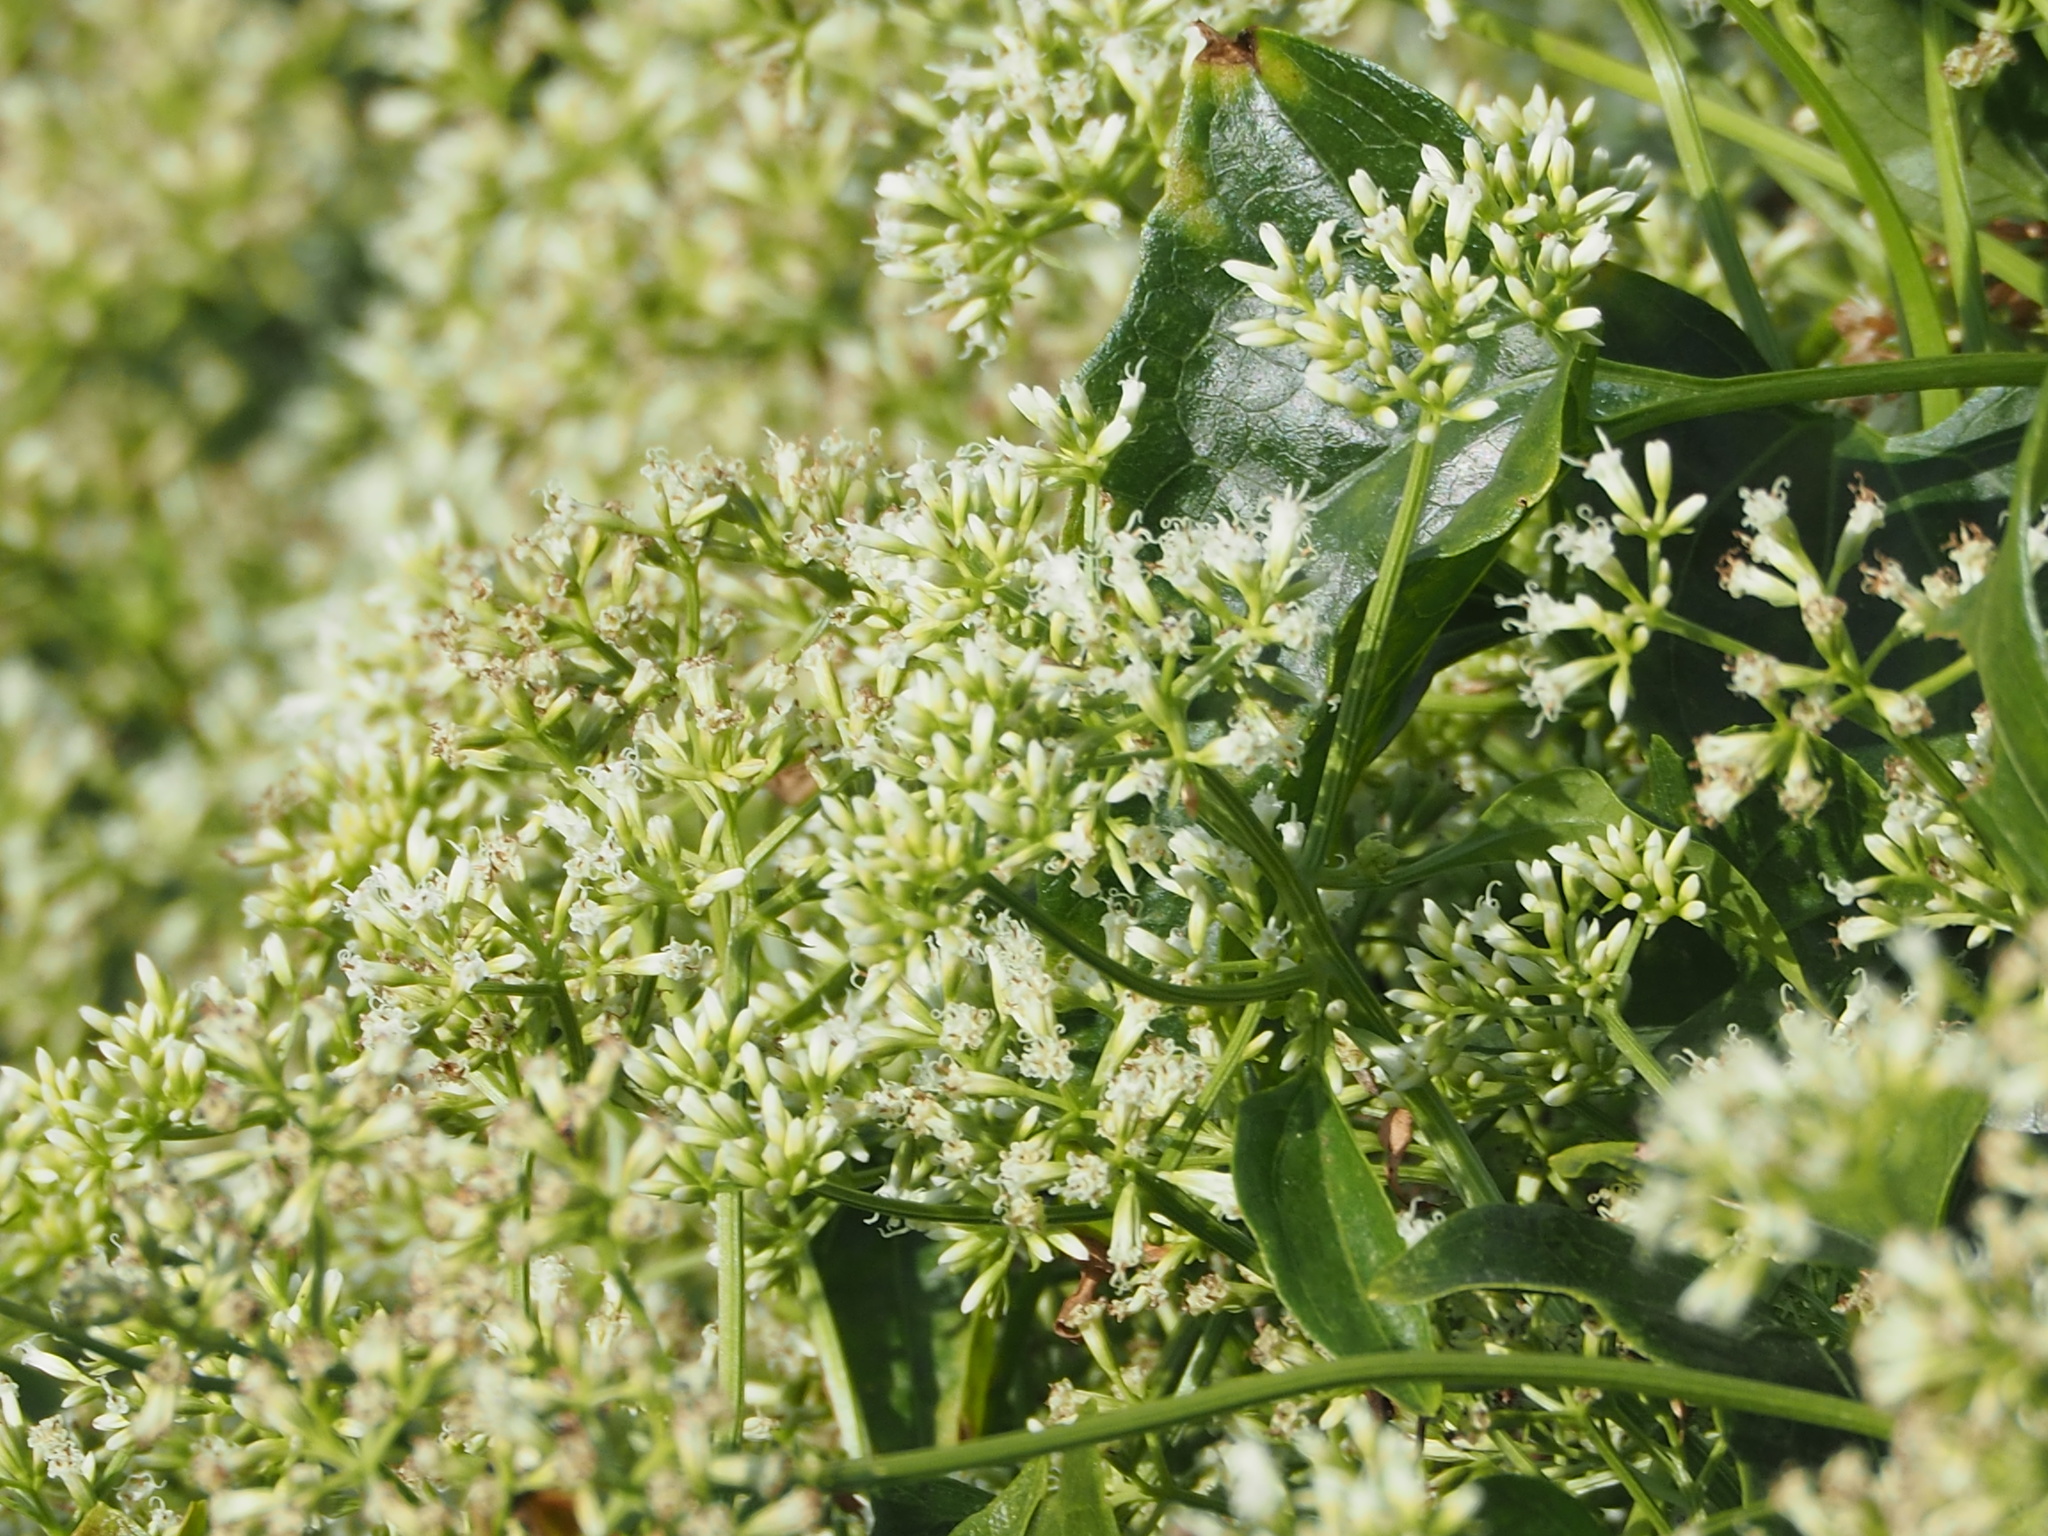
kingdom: Plantae
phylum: Tracheophyta
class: Magnoliopsida
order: Asterales
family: Asteraceae
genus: Mikania
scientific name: Mikania micrantha
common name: Mile-a-minute
